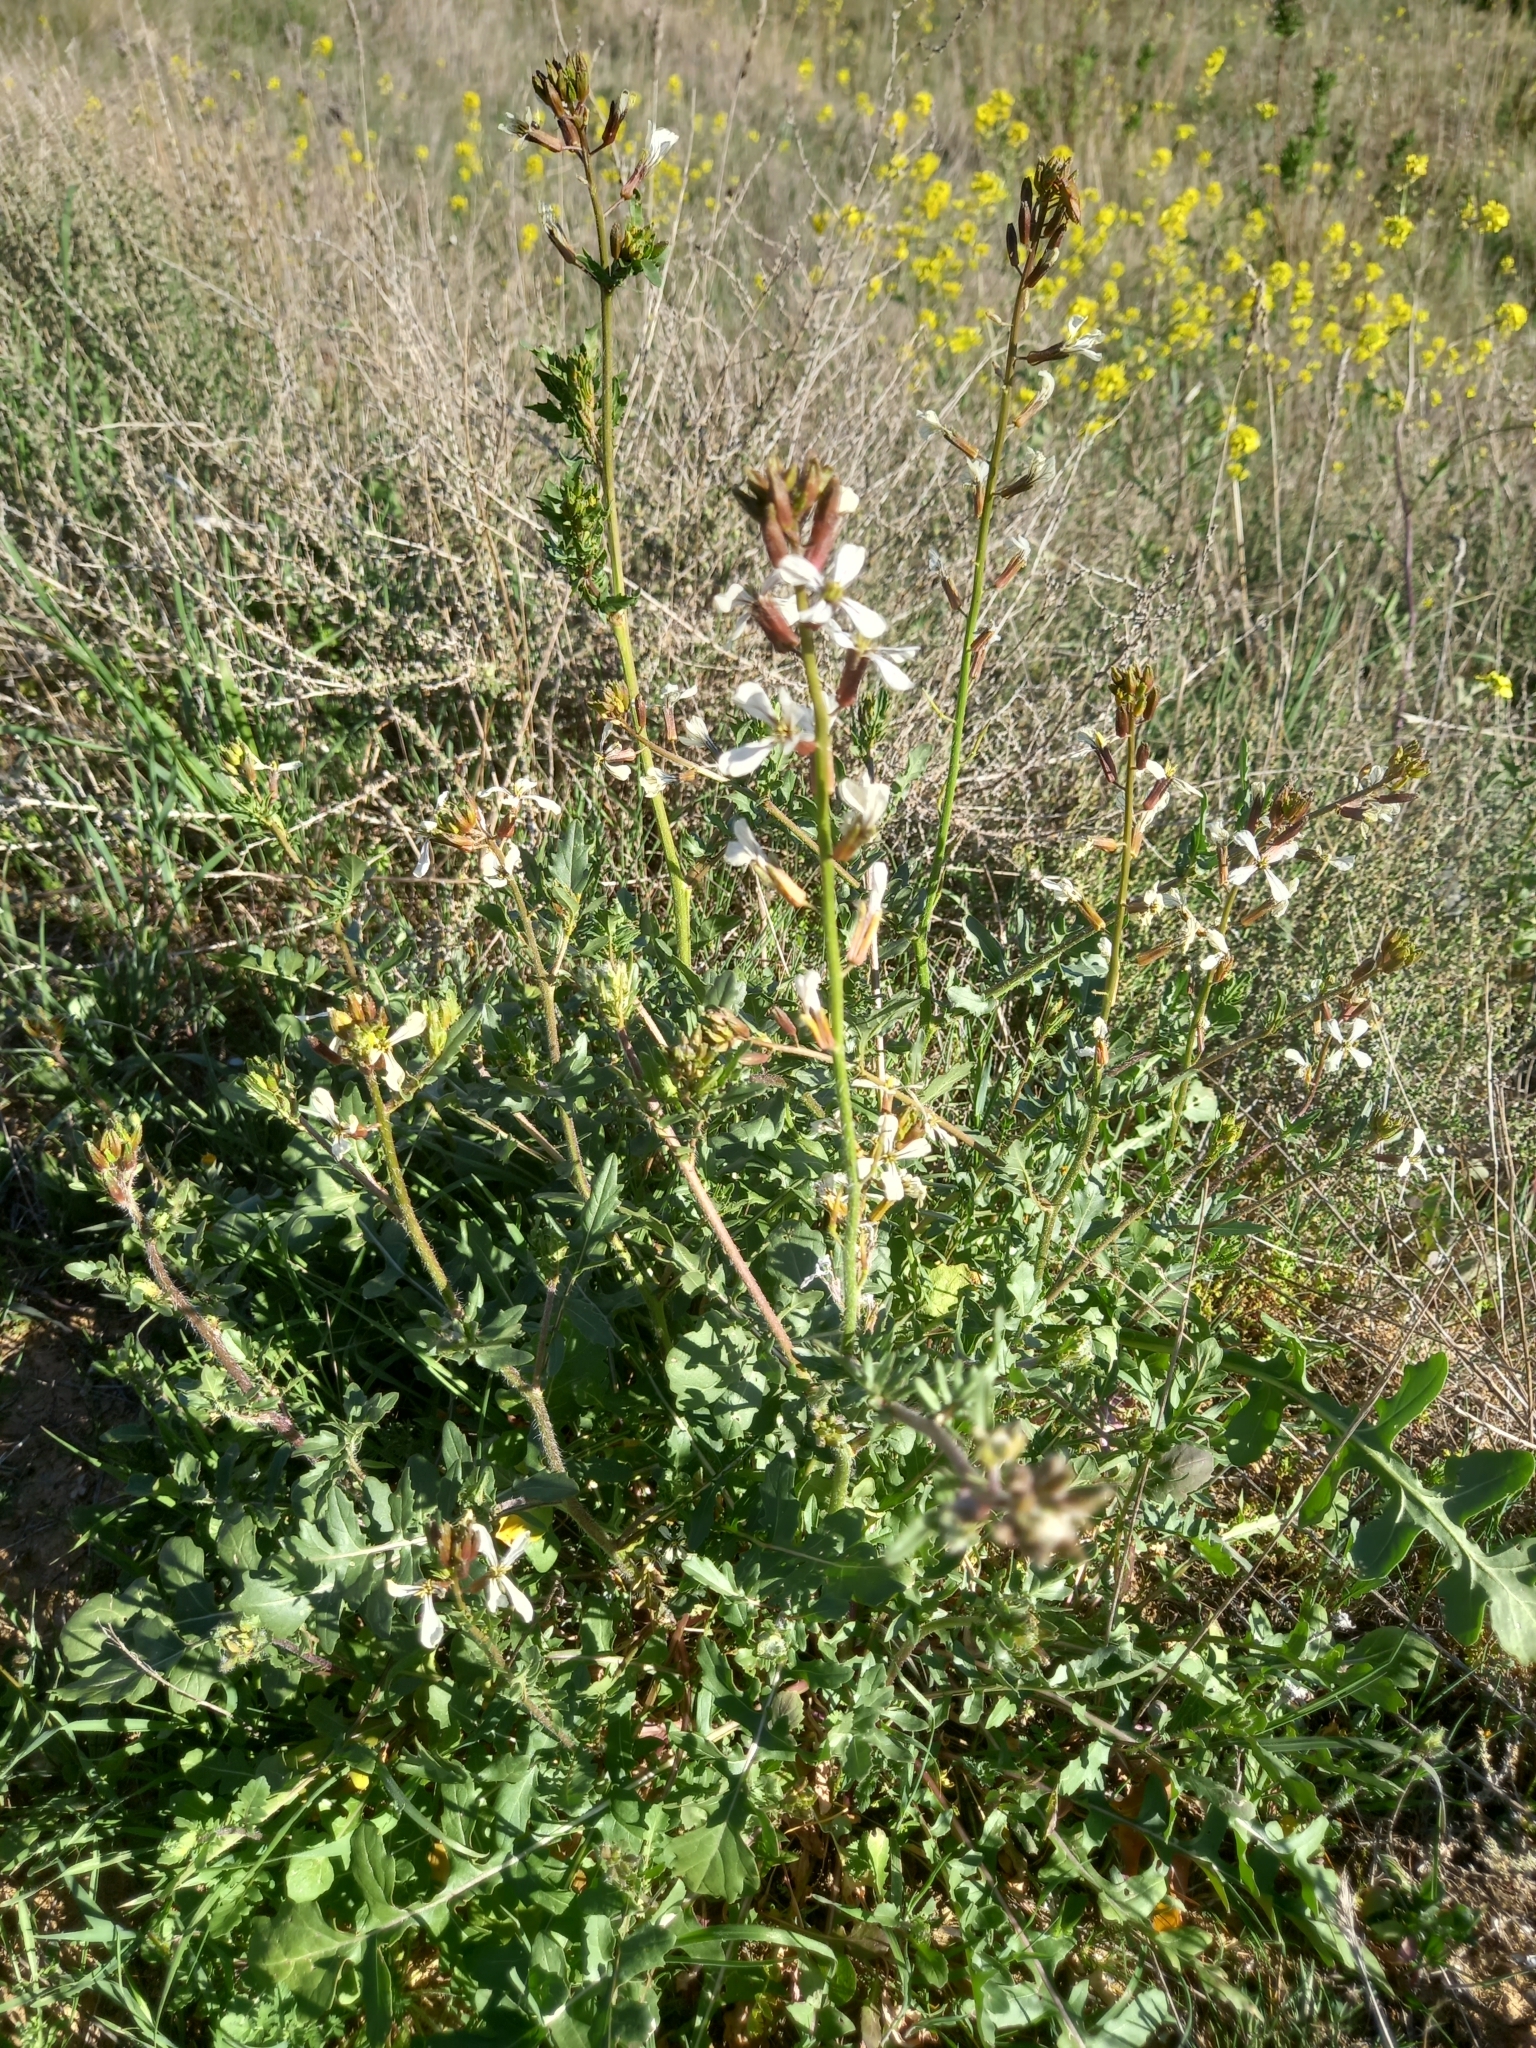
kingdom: Plantae
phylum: Tracheophyta
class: Magnoliopsida
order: Brassicales
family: Brassicaceae
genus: Eruca
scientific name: Eruca vesicaria
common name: Garden rocket
